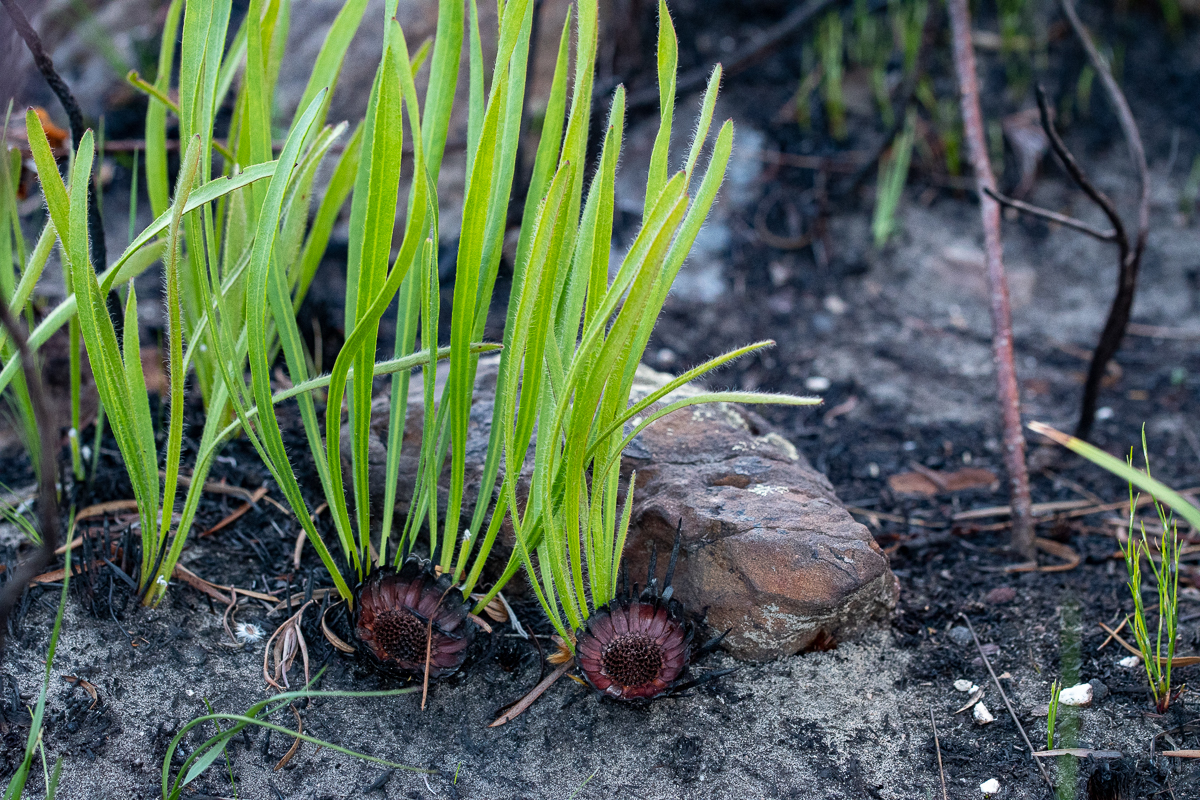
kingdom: Plantae
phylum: Tracheophyta
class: Magnoliopsida
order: Proteales
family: Proteaceae
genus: Protea
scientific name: Protea scabra
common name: Sandpaper-leaf sugarbush
